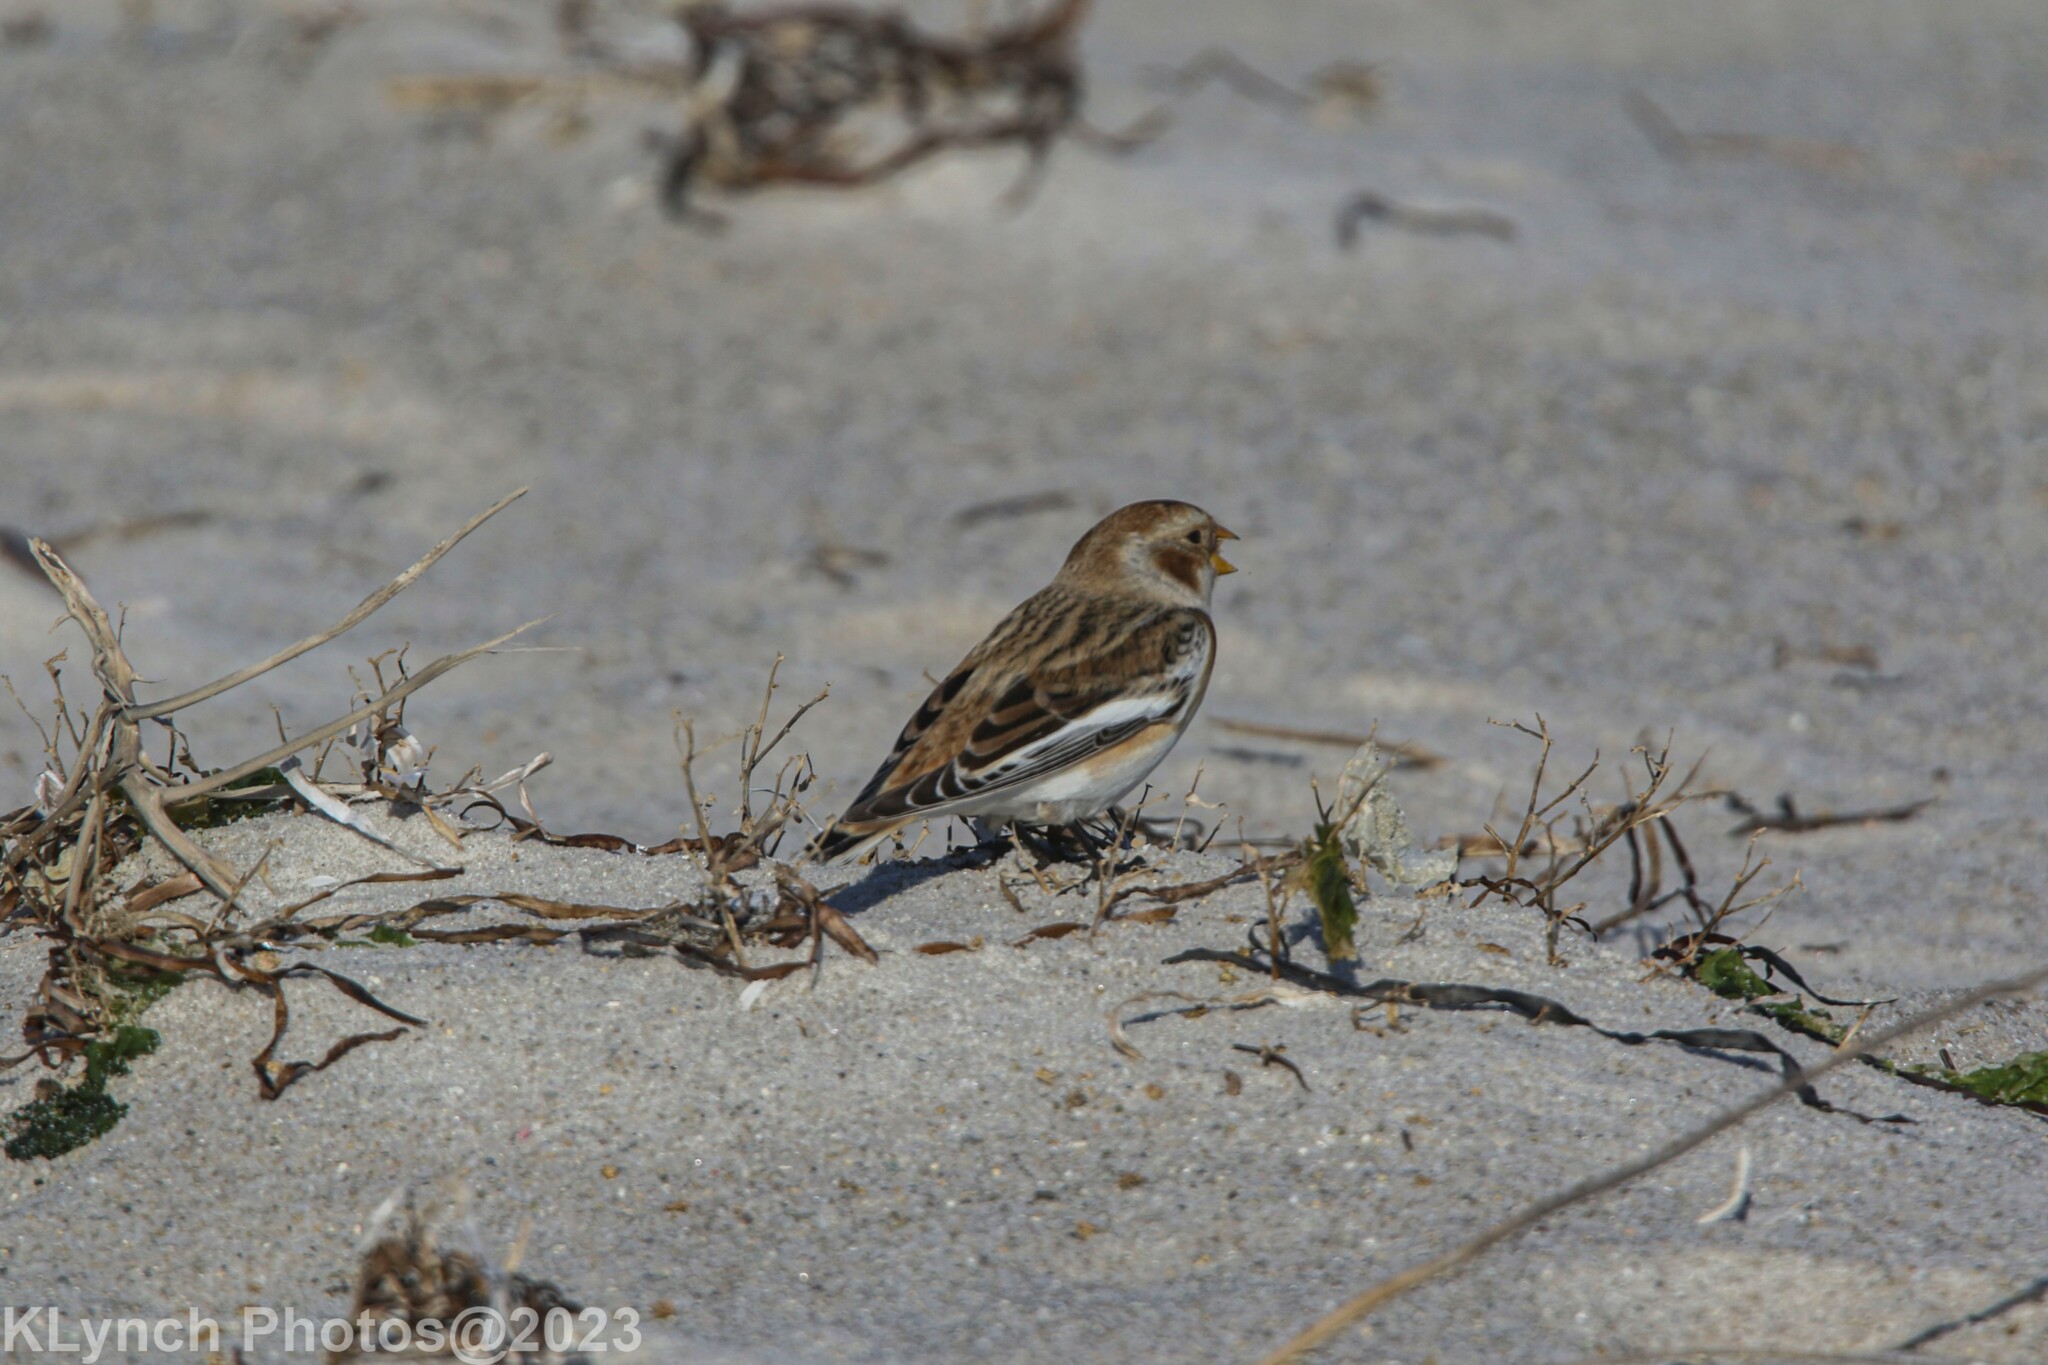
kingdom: Animalia
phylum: Chordata
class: Aves
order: Passeriformes
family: Calcariidae
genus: Plectrophenax
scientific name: Plectrophenax nivalis
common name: Snow bunting
